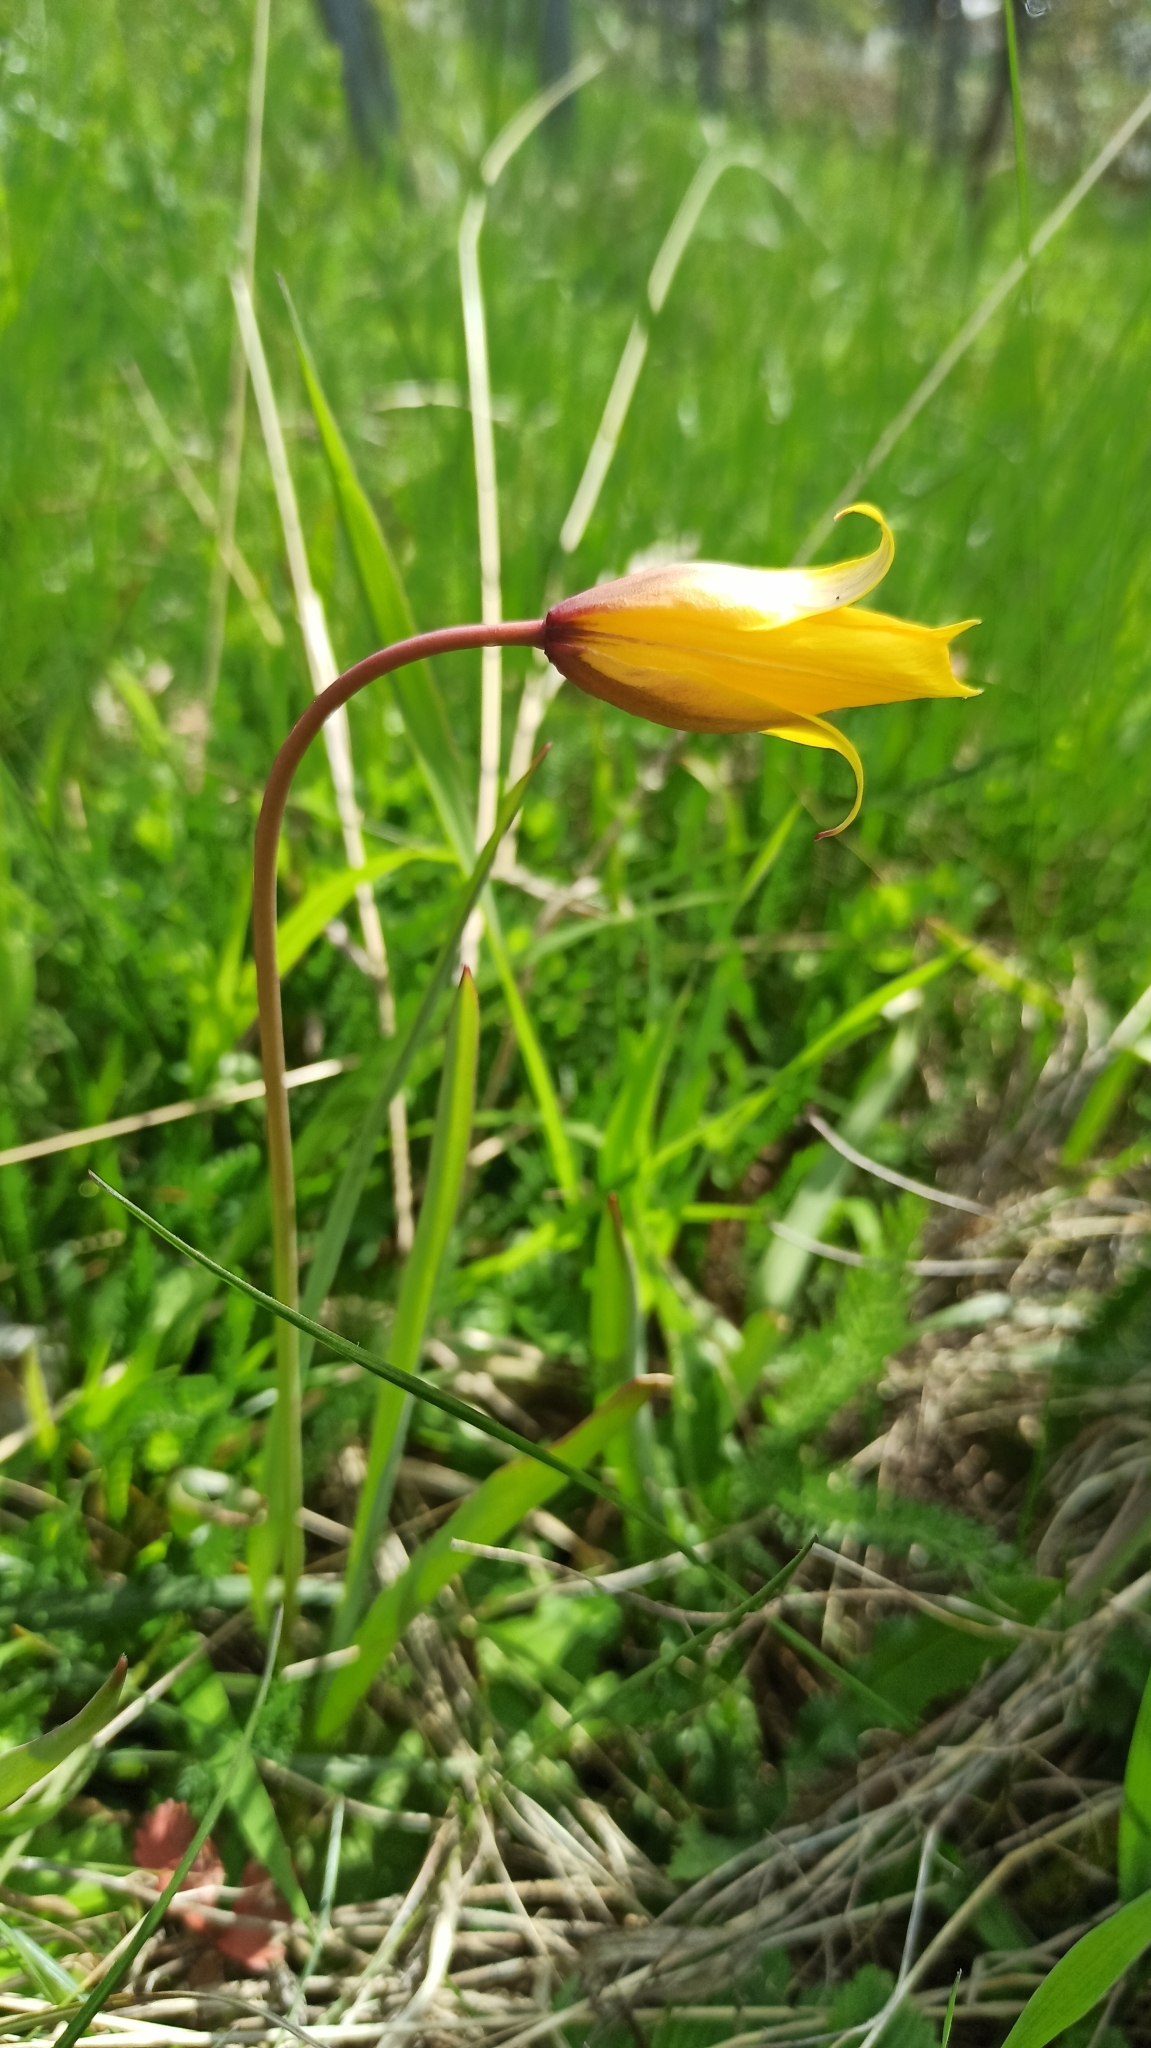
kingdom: Plantae
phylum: Tracheophyta
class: Liliopsida
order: Liliales
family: Liliaceae
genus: Tulipa
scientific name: Tulipa sylvestris
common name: Wild tulip
